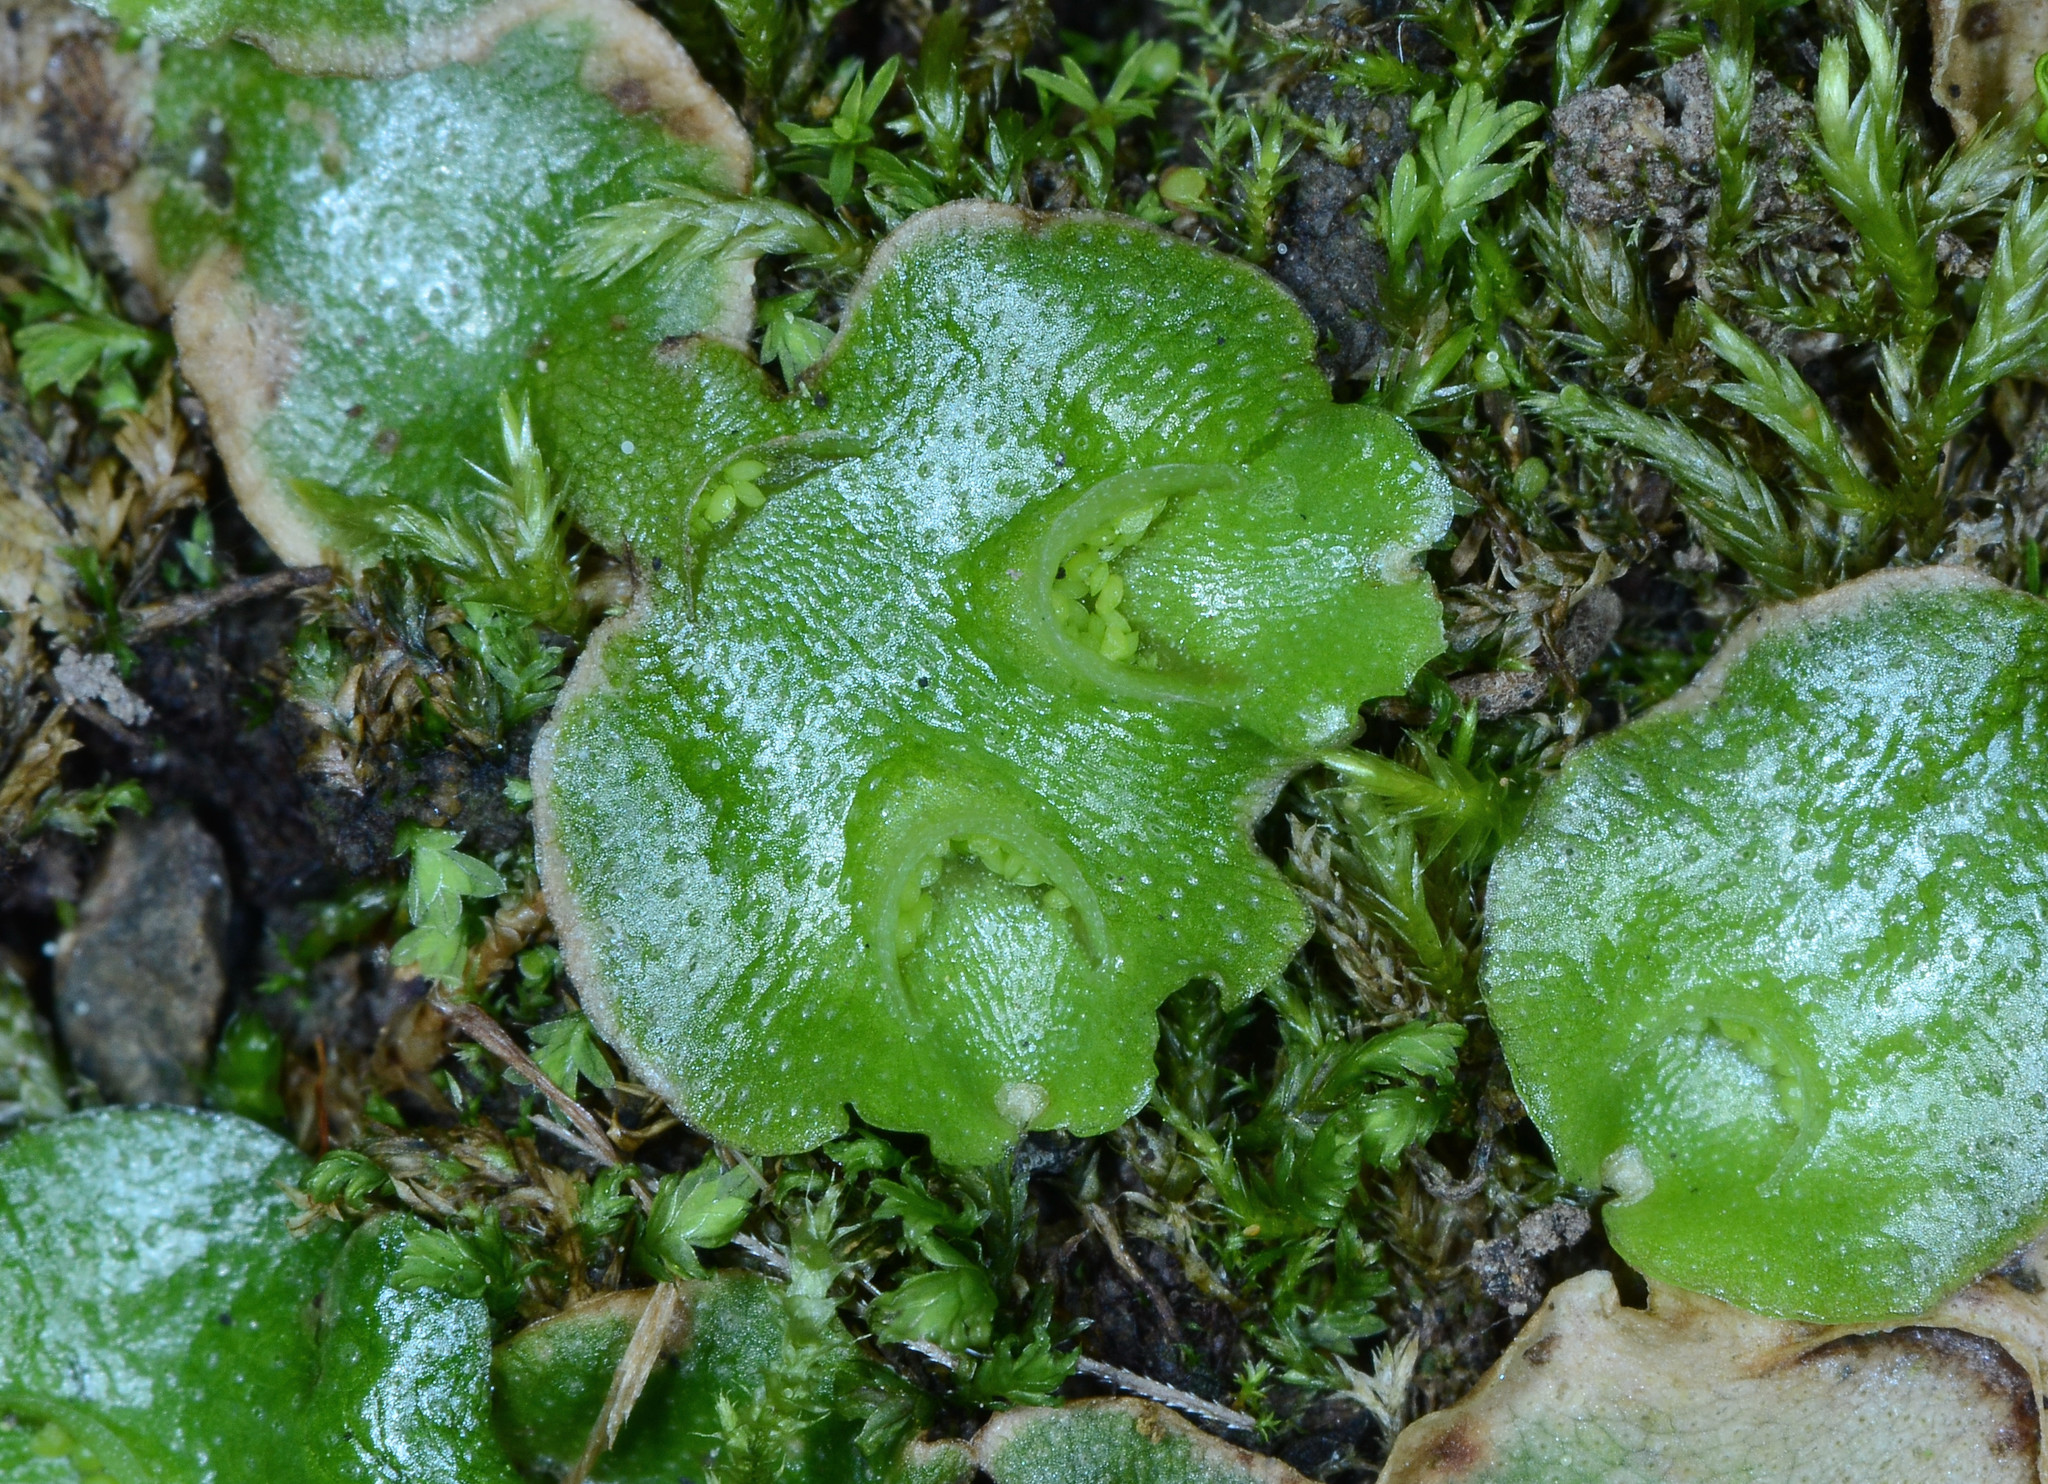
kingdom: Plantae
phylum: Marchantiophyta
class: Marchantiopsida
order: Lunulariales
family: Lunulariaceae
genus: Lunularia
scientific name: Lunularia cruciata
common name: Crescent-cup liverwort
